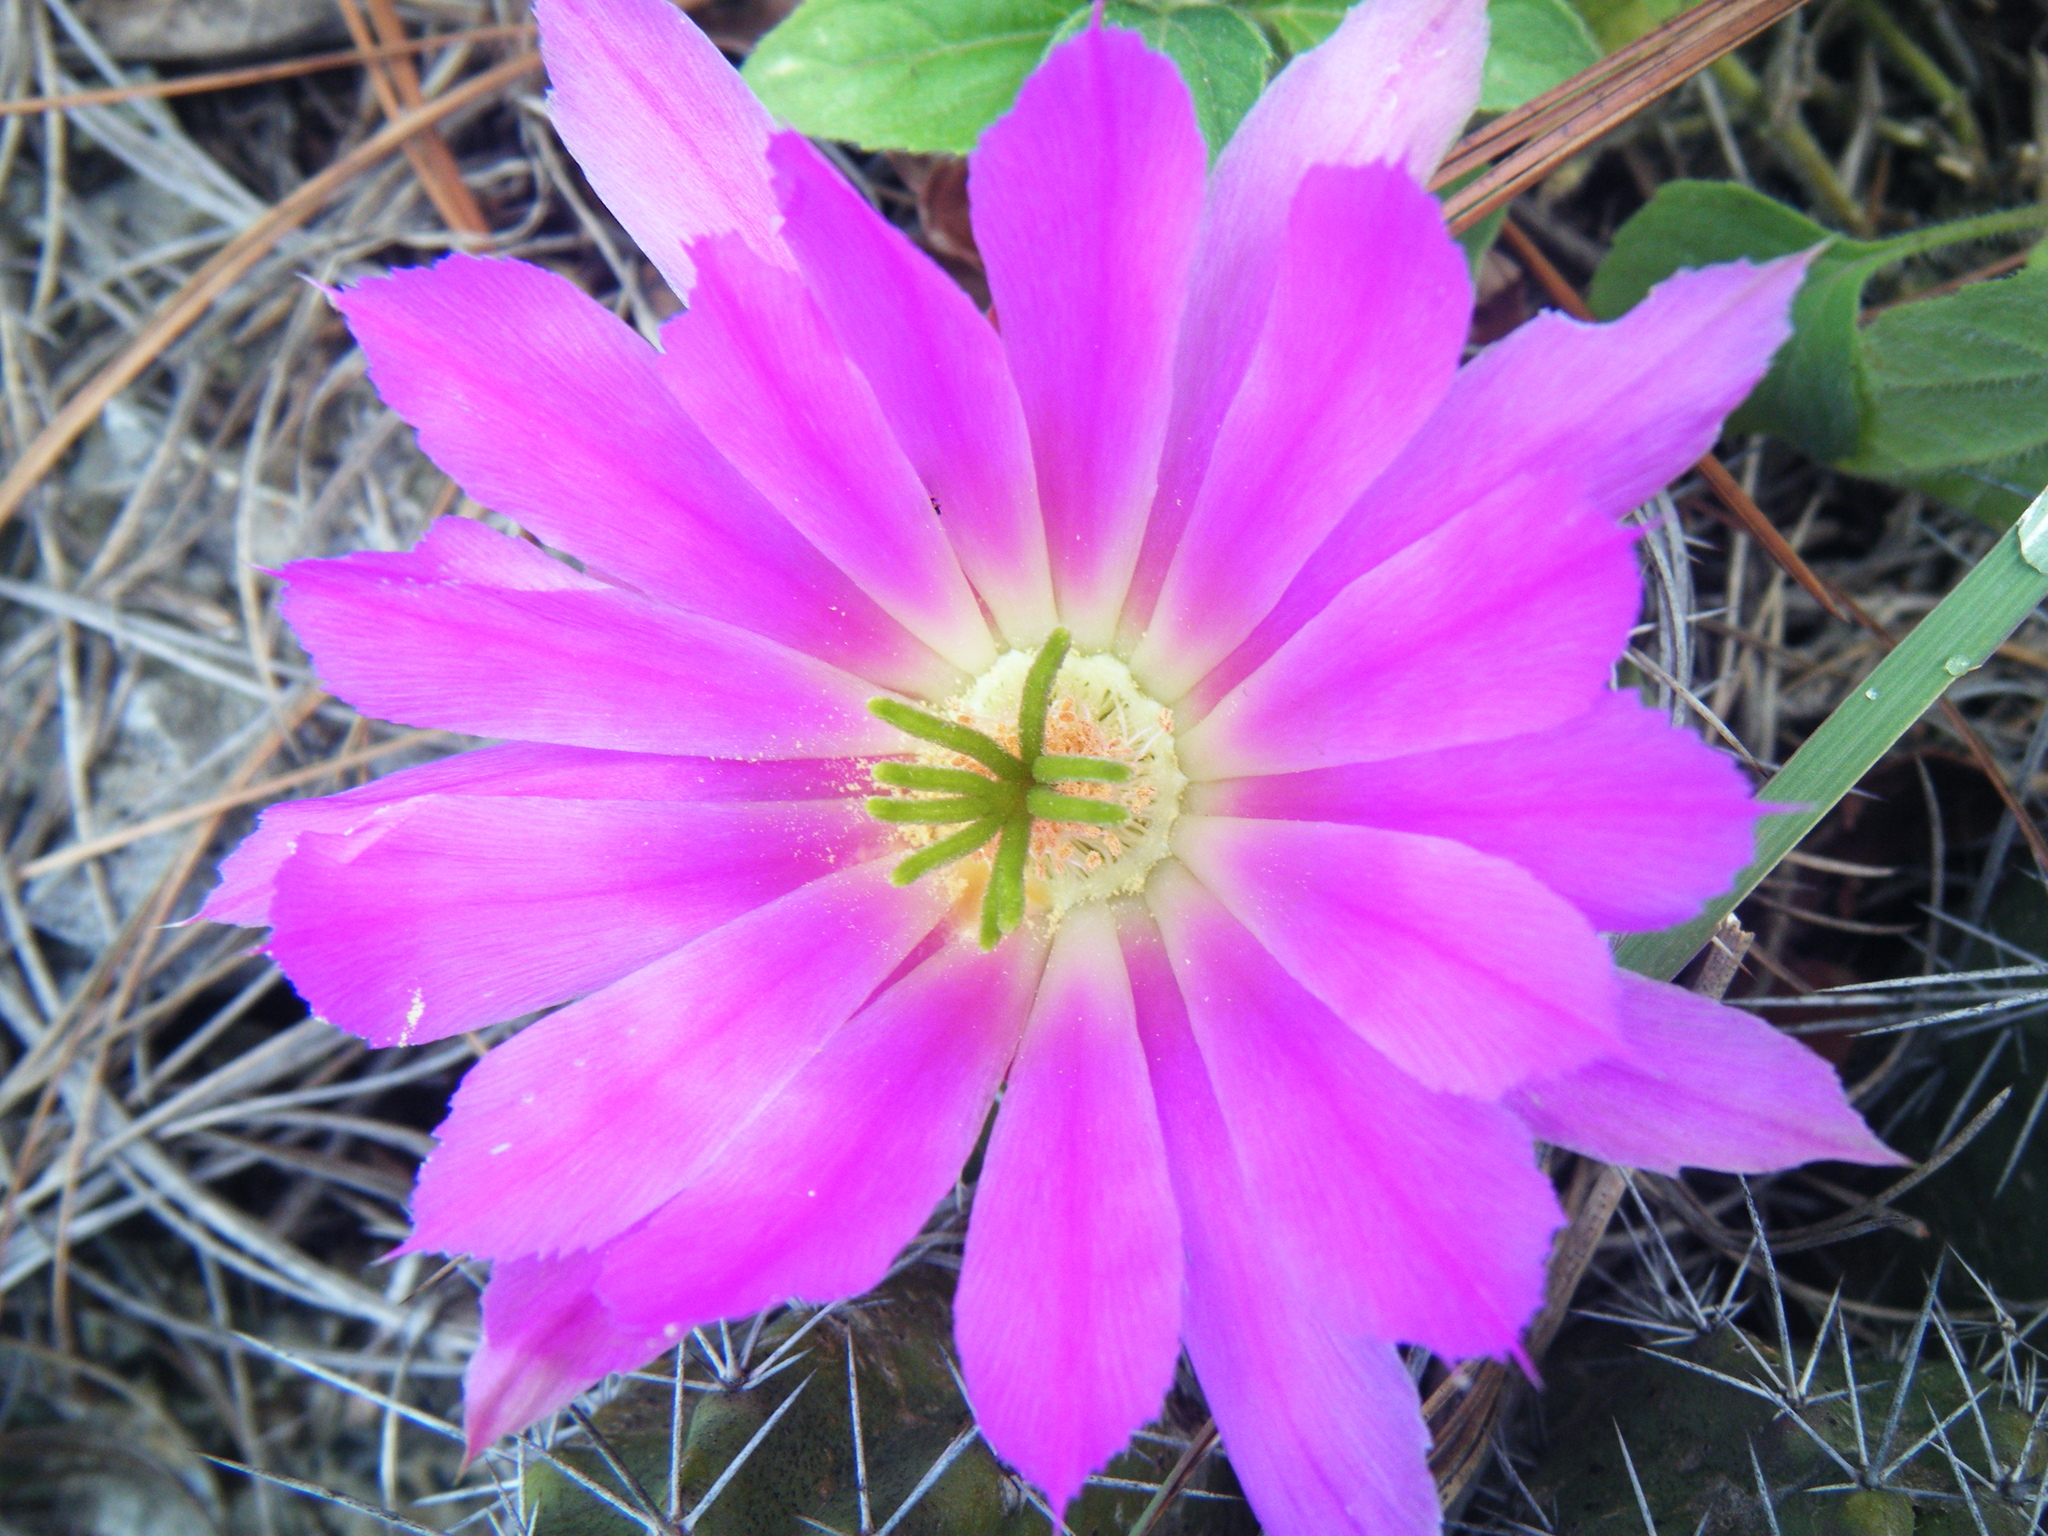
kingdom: Plantae
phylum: Tracheophyta
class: Magnoliopsida
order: Caryophyllales
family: Cactaceae
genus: Echinocereus
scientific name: Echinocereus pentalophus
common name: Ladyfinger cactus
